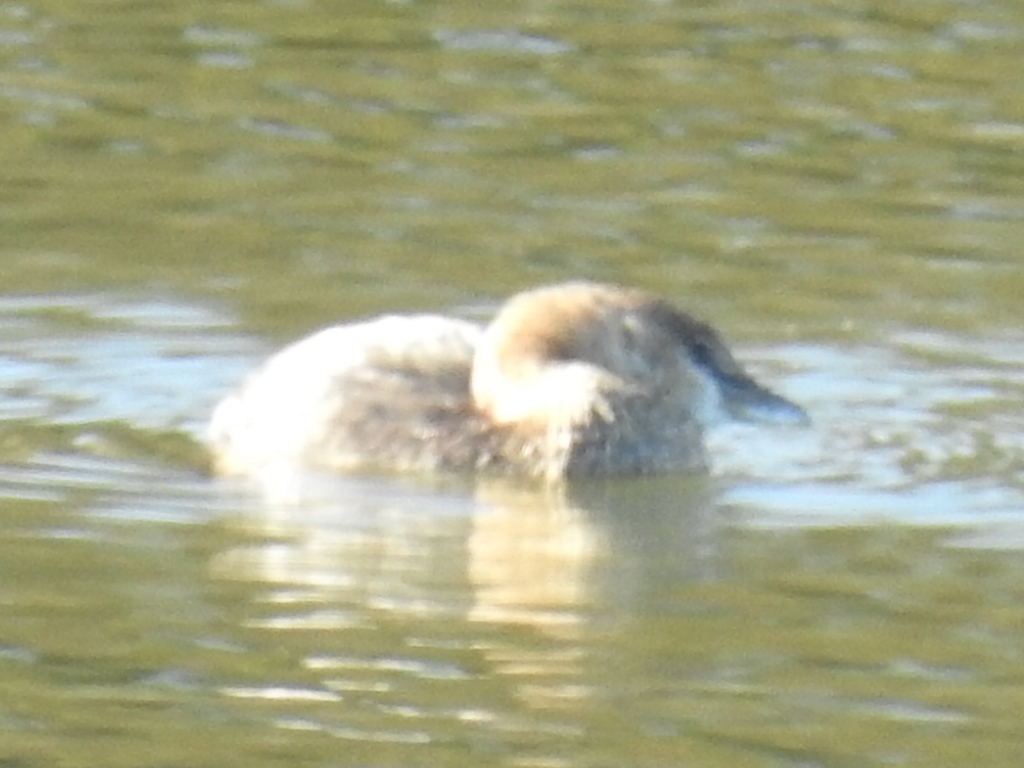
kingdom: Animalia
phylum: Chordata
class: Aves
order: Podicipediformes
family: Podicipedidae
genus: Podilymbus
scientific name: Podilymbus podiceps
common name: Pied-billed grebe
